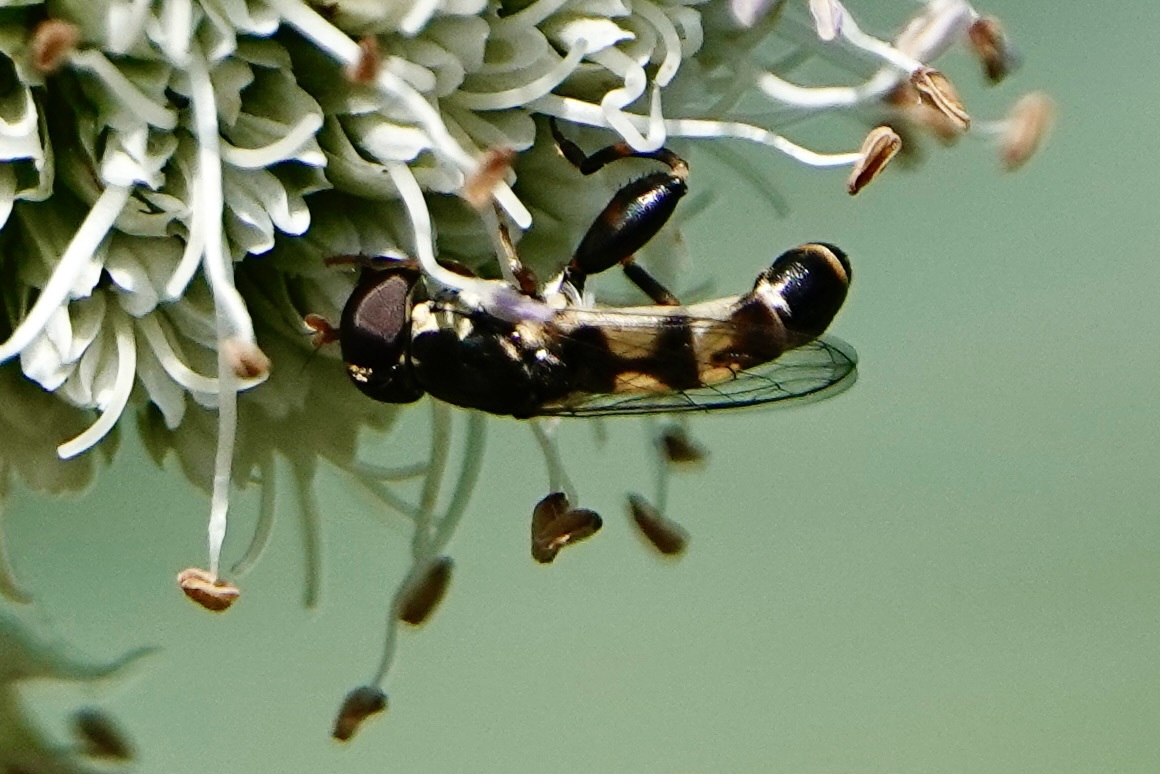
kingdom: Animalia
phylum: Arthropoda
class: Insecta
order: Diptera
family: Syrphidae
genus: Syritta
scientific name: Syritta pipiens
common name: Hover fly
